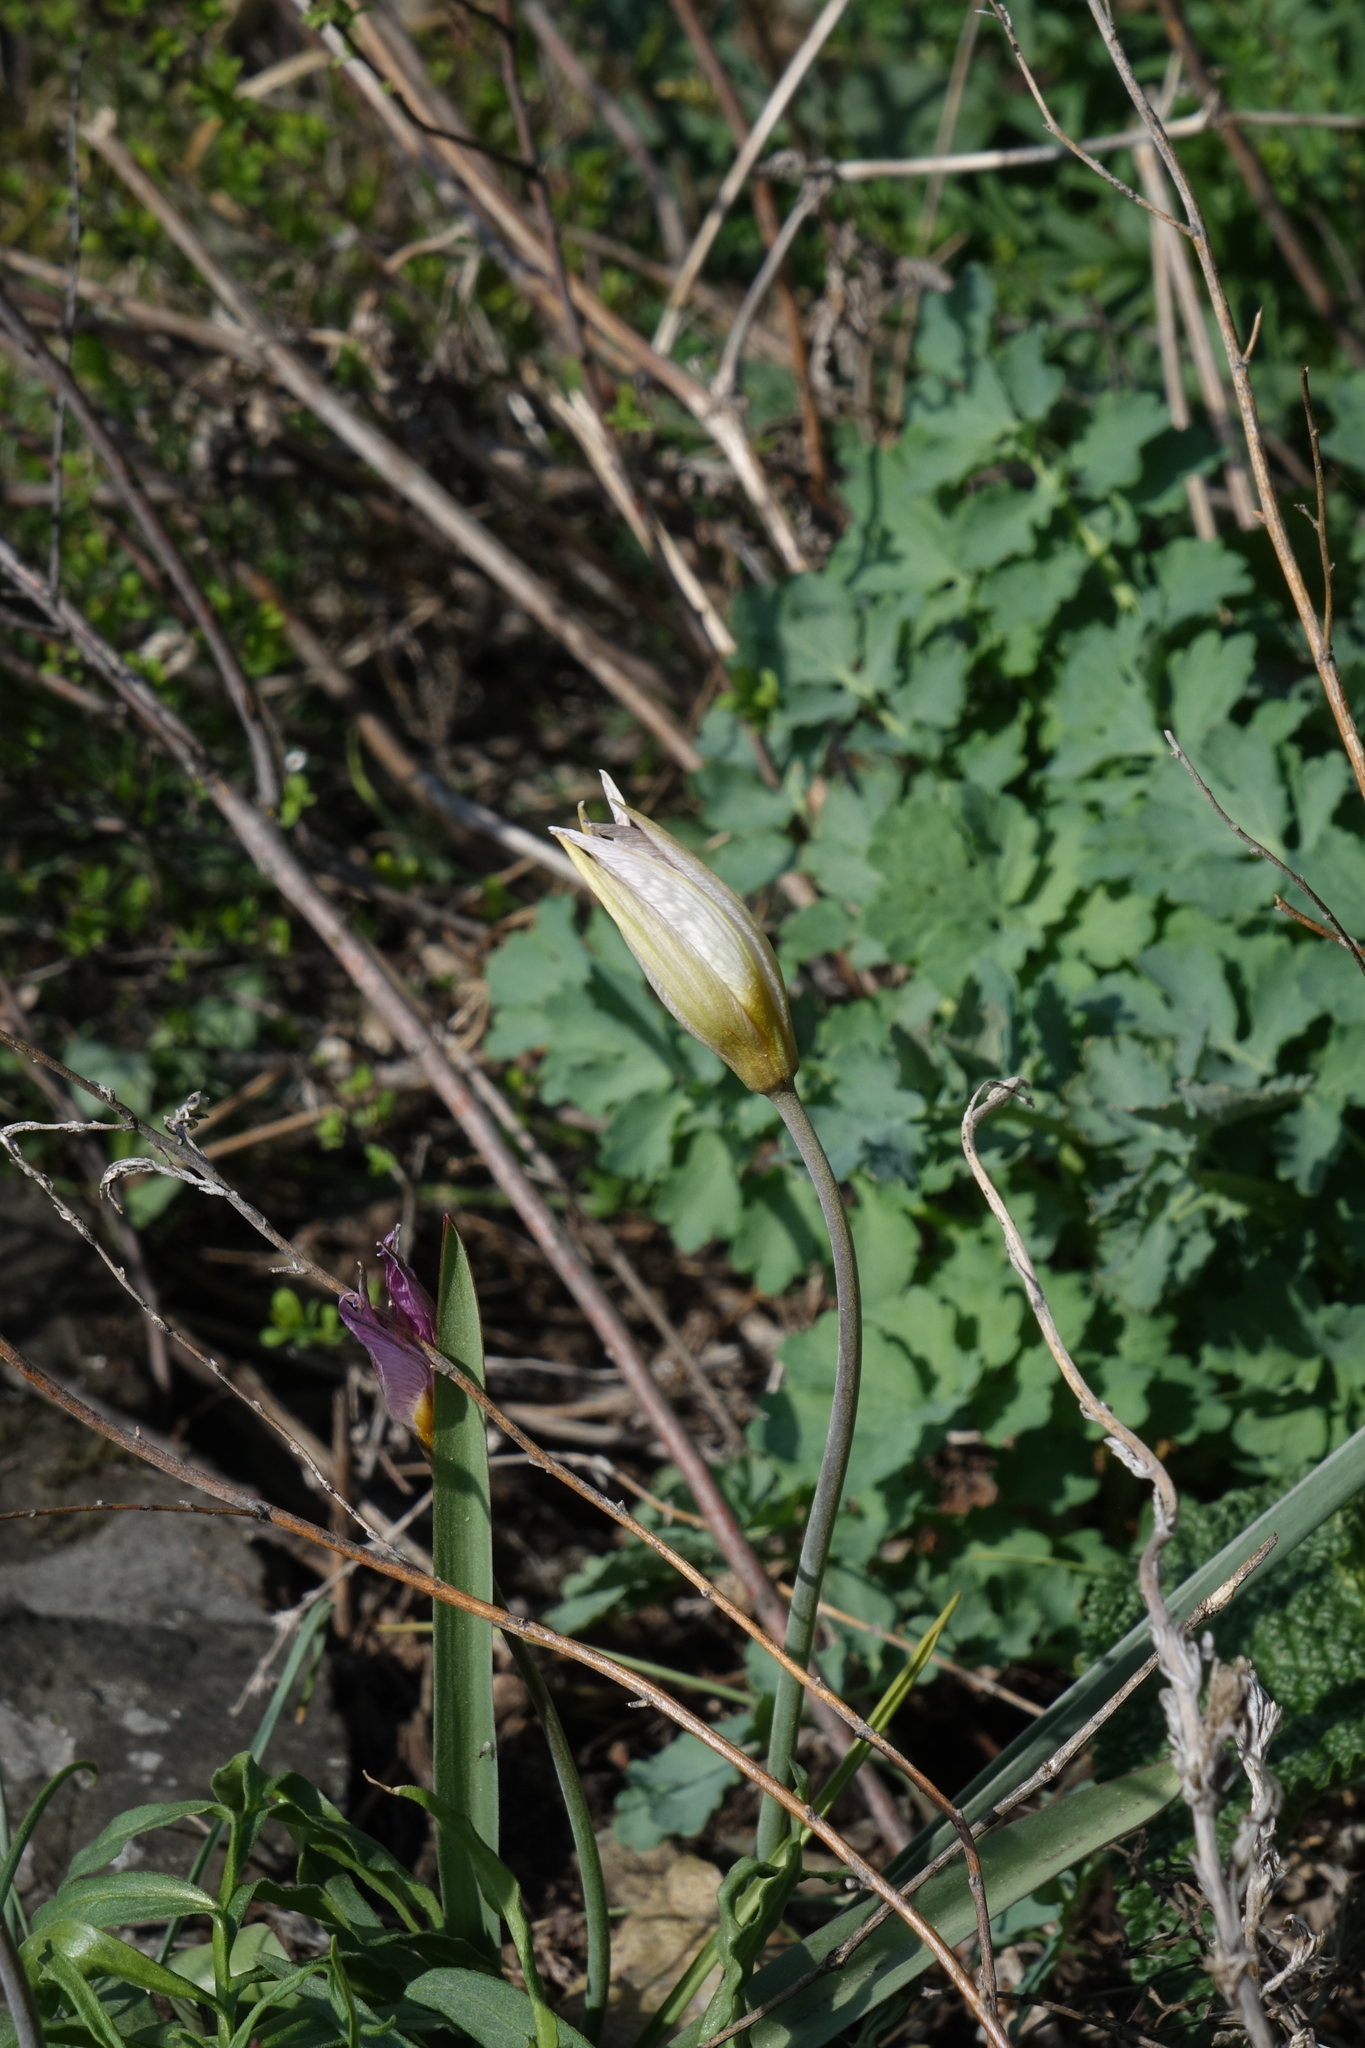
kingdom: Plantae
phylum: Tracheophyta
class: Liliopsida
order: Liliales
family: Liliaceae
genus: Tulipa
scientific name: Tulipa patens
